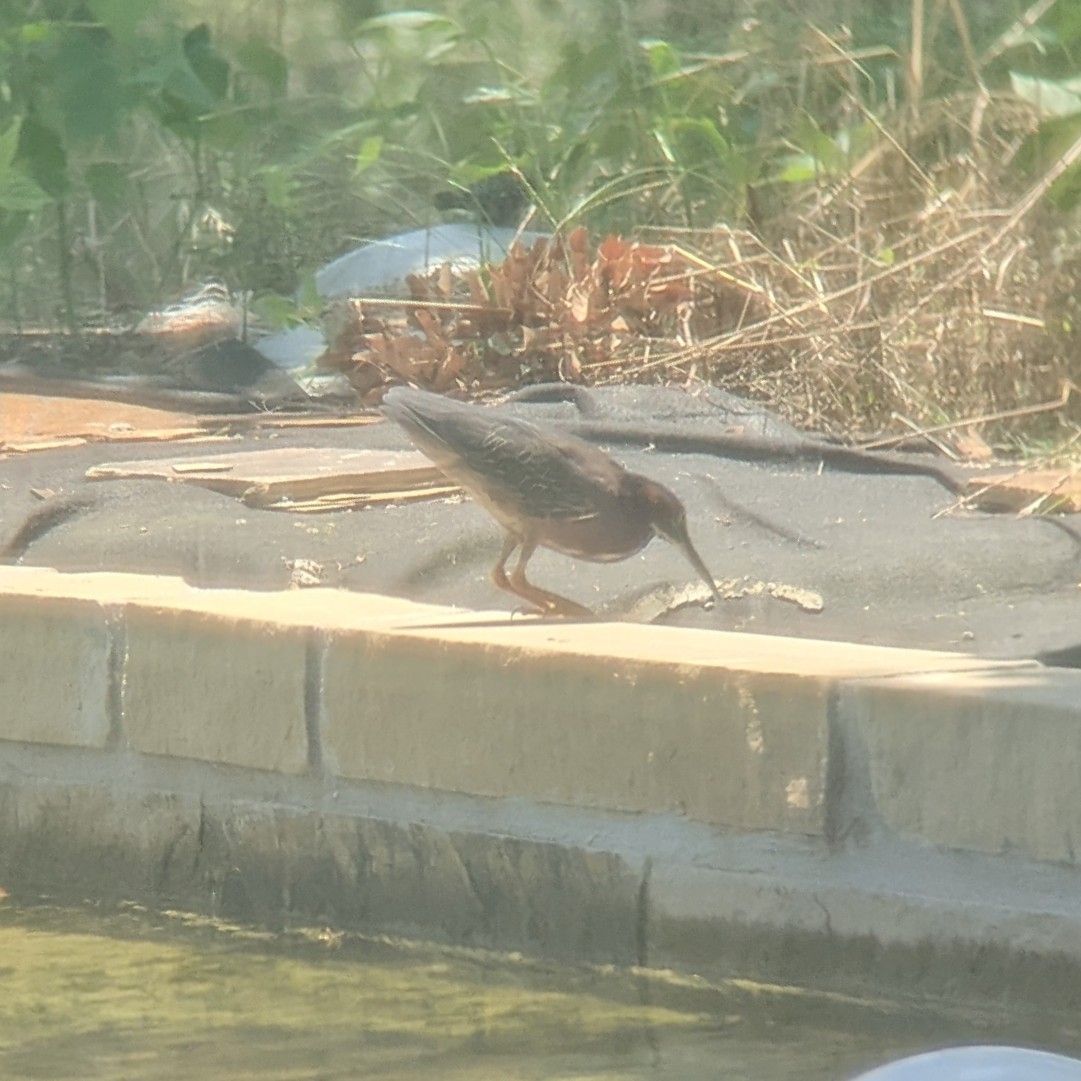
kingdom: Animalia
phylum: Chordata
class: Aves
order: Pelecaniformes
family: Ardeidae
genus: Butorides
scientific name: Butorides virescens
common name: Green heron
